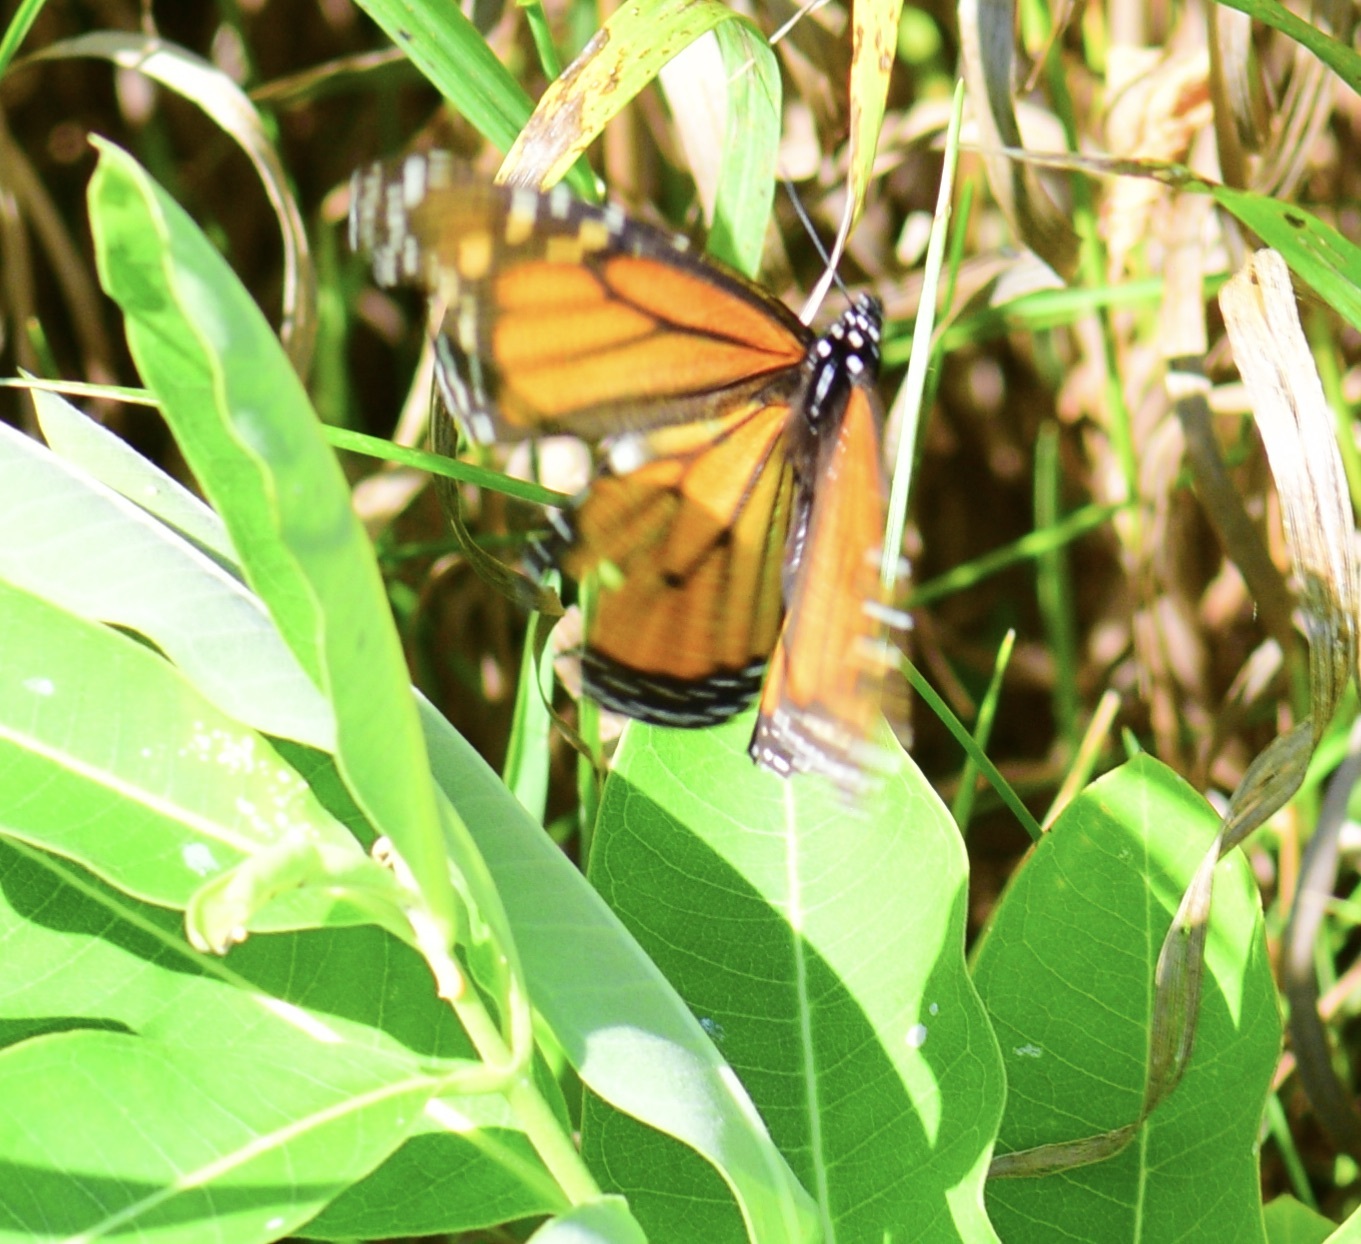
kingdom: Animalia
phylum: Arthropoda
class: Insecta
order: Lepidoptera
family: Nymphalidae
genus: Danaus
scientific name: Danaus plexippus
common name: Monarch
